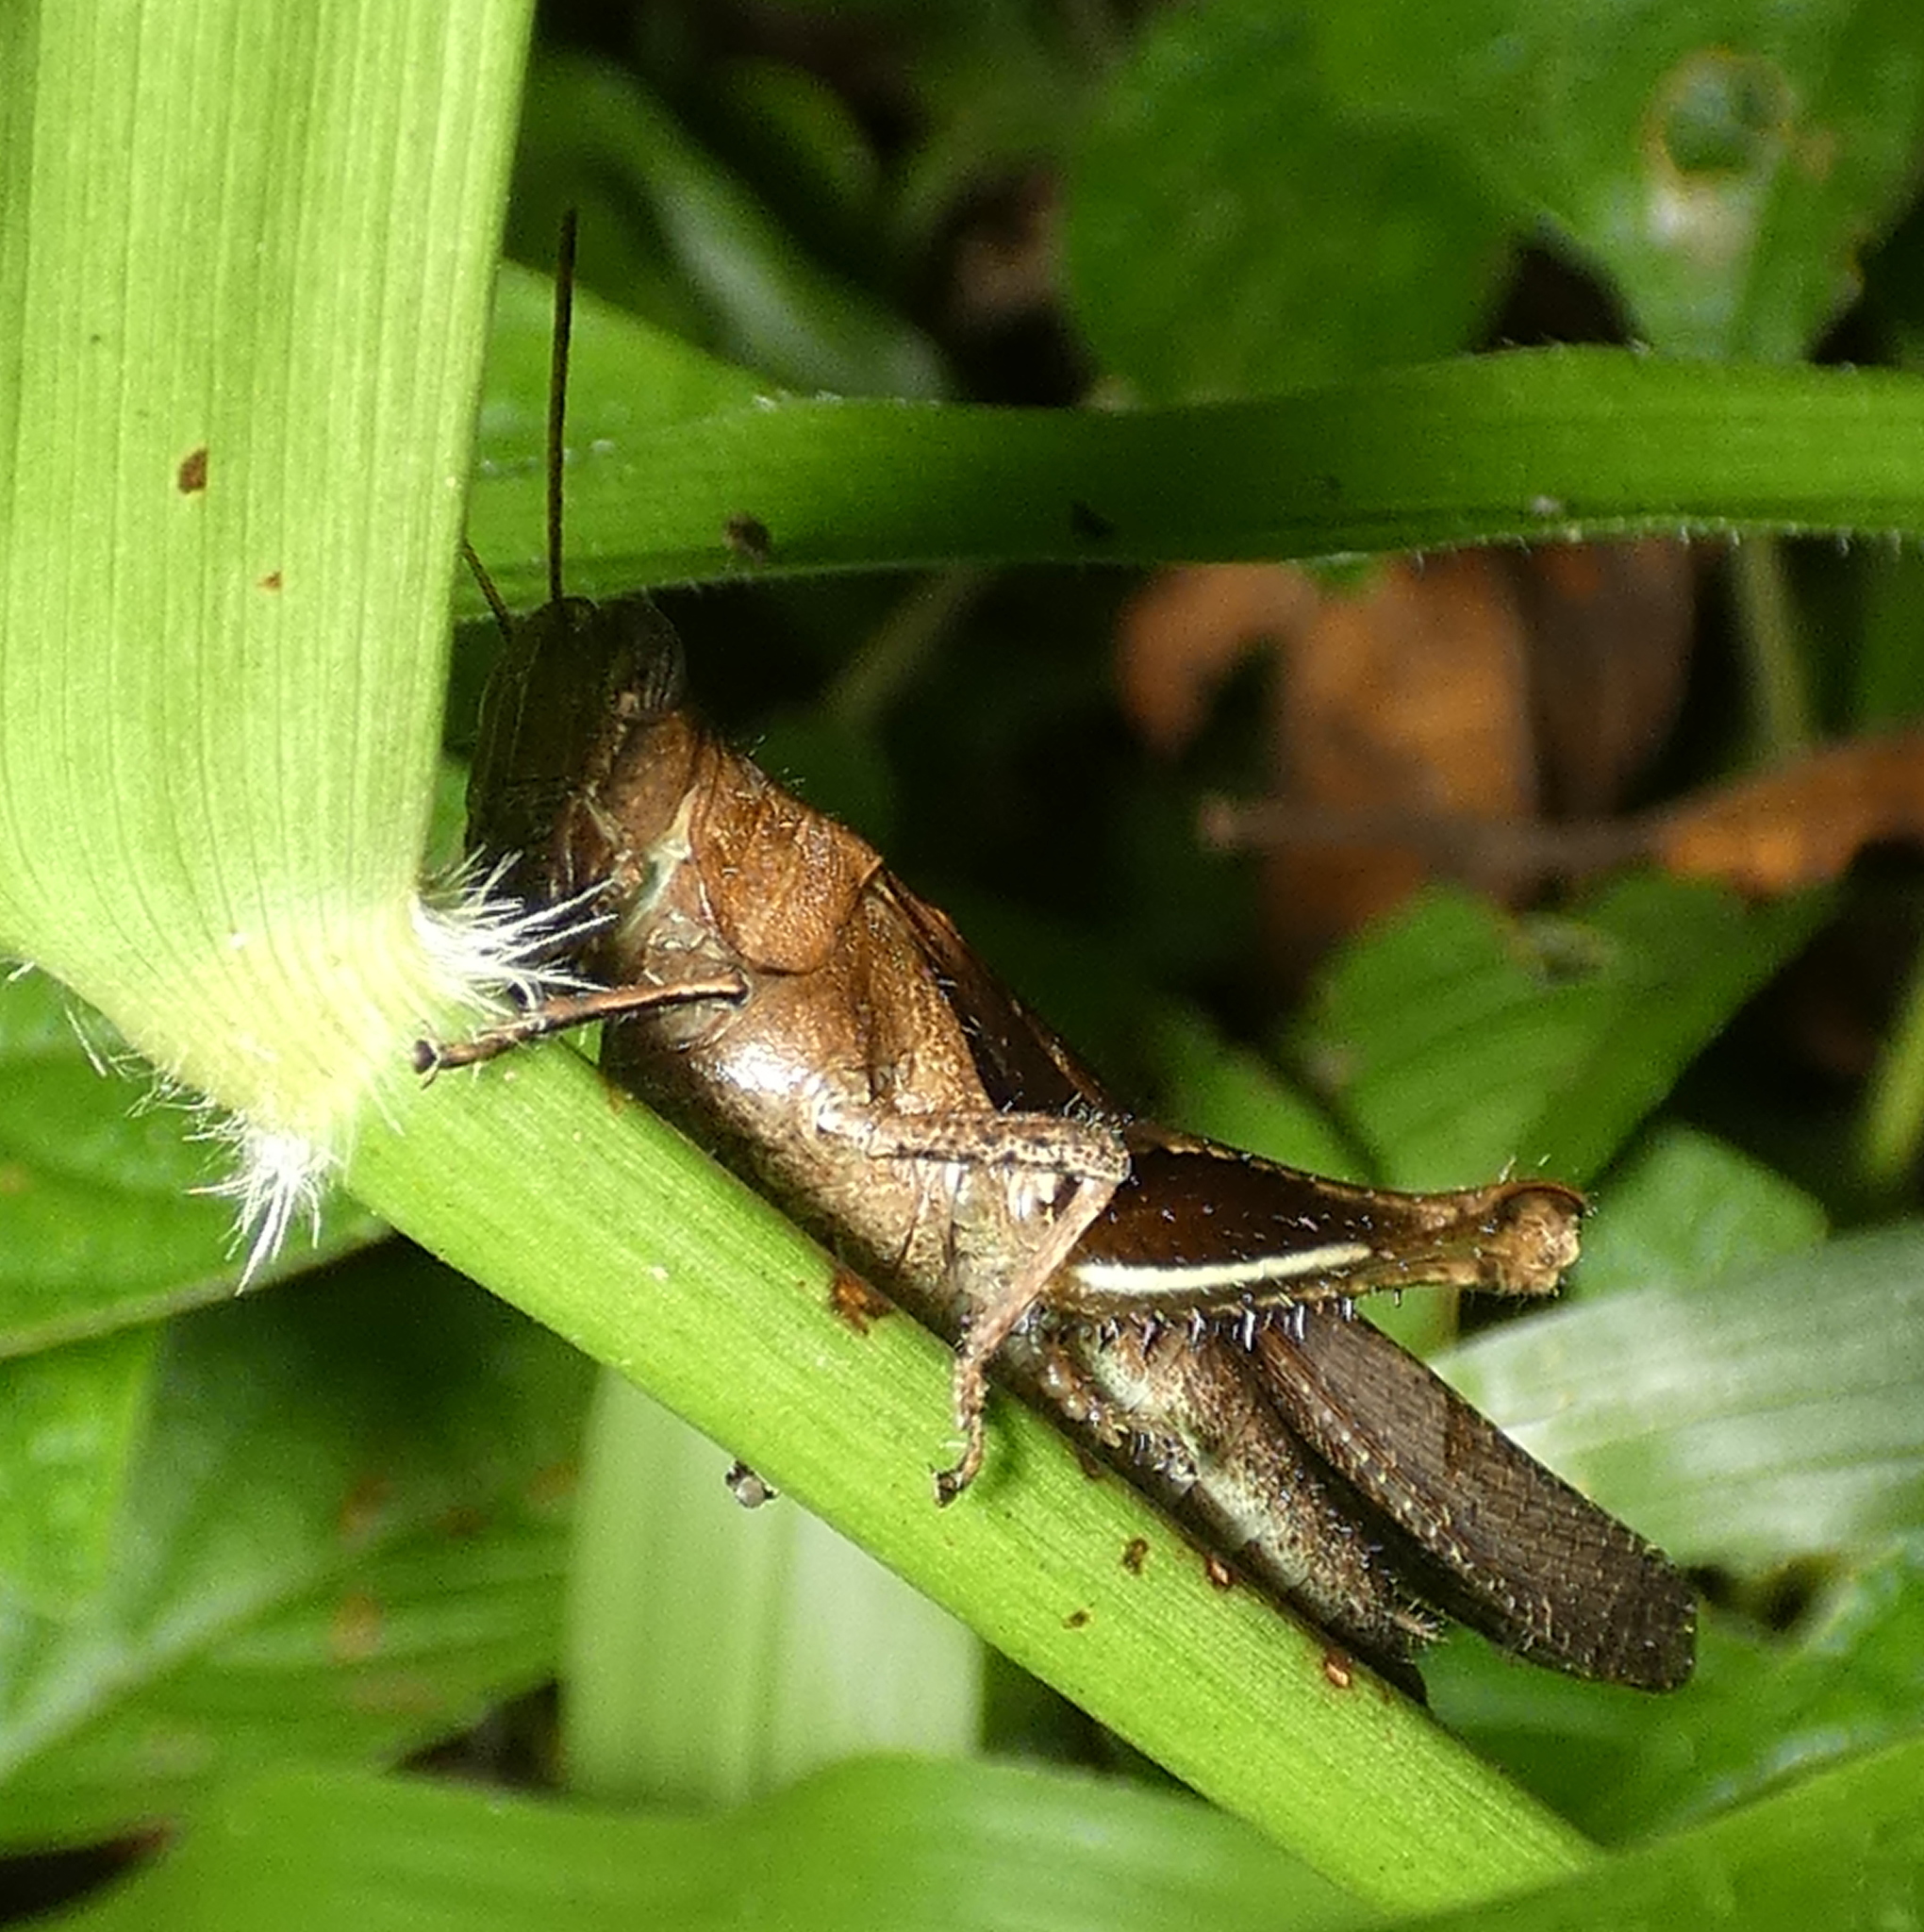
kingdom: Animalia
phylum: Arthropoda
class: Insecta
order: Orthoptera
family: Acrididae
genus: Abracris
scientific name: Abracris flavolineata
